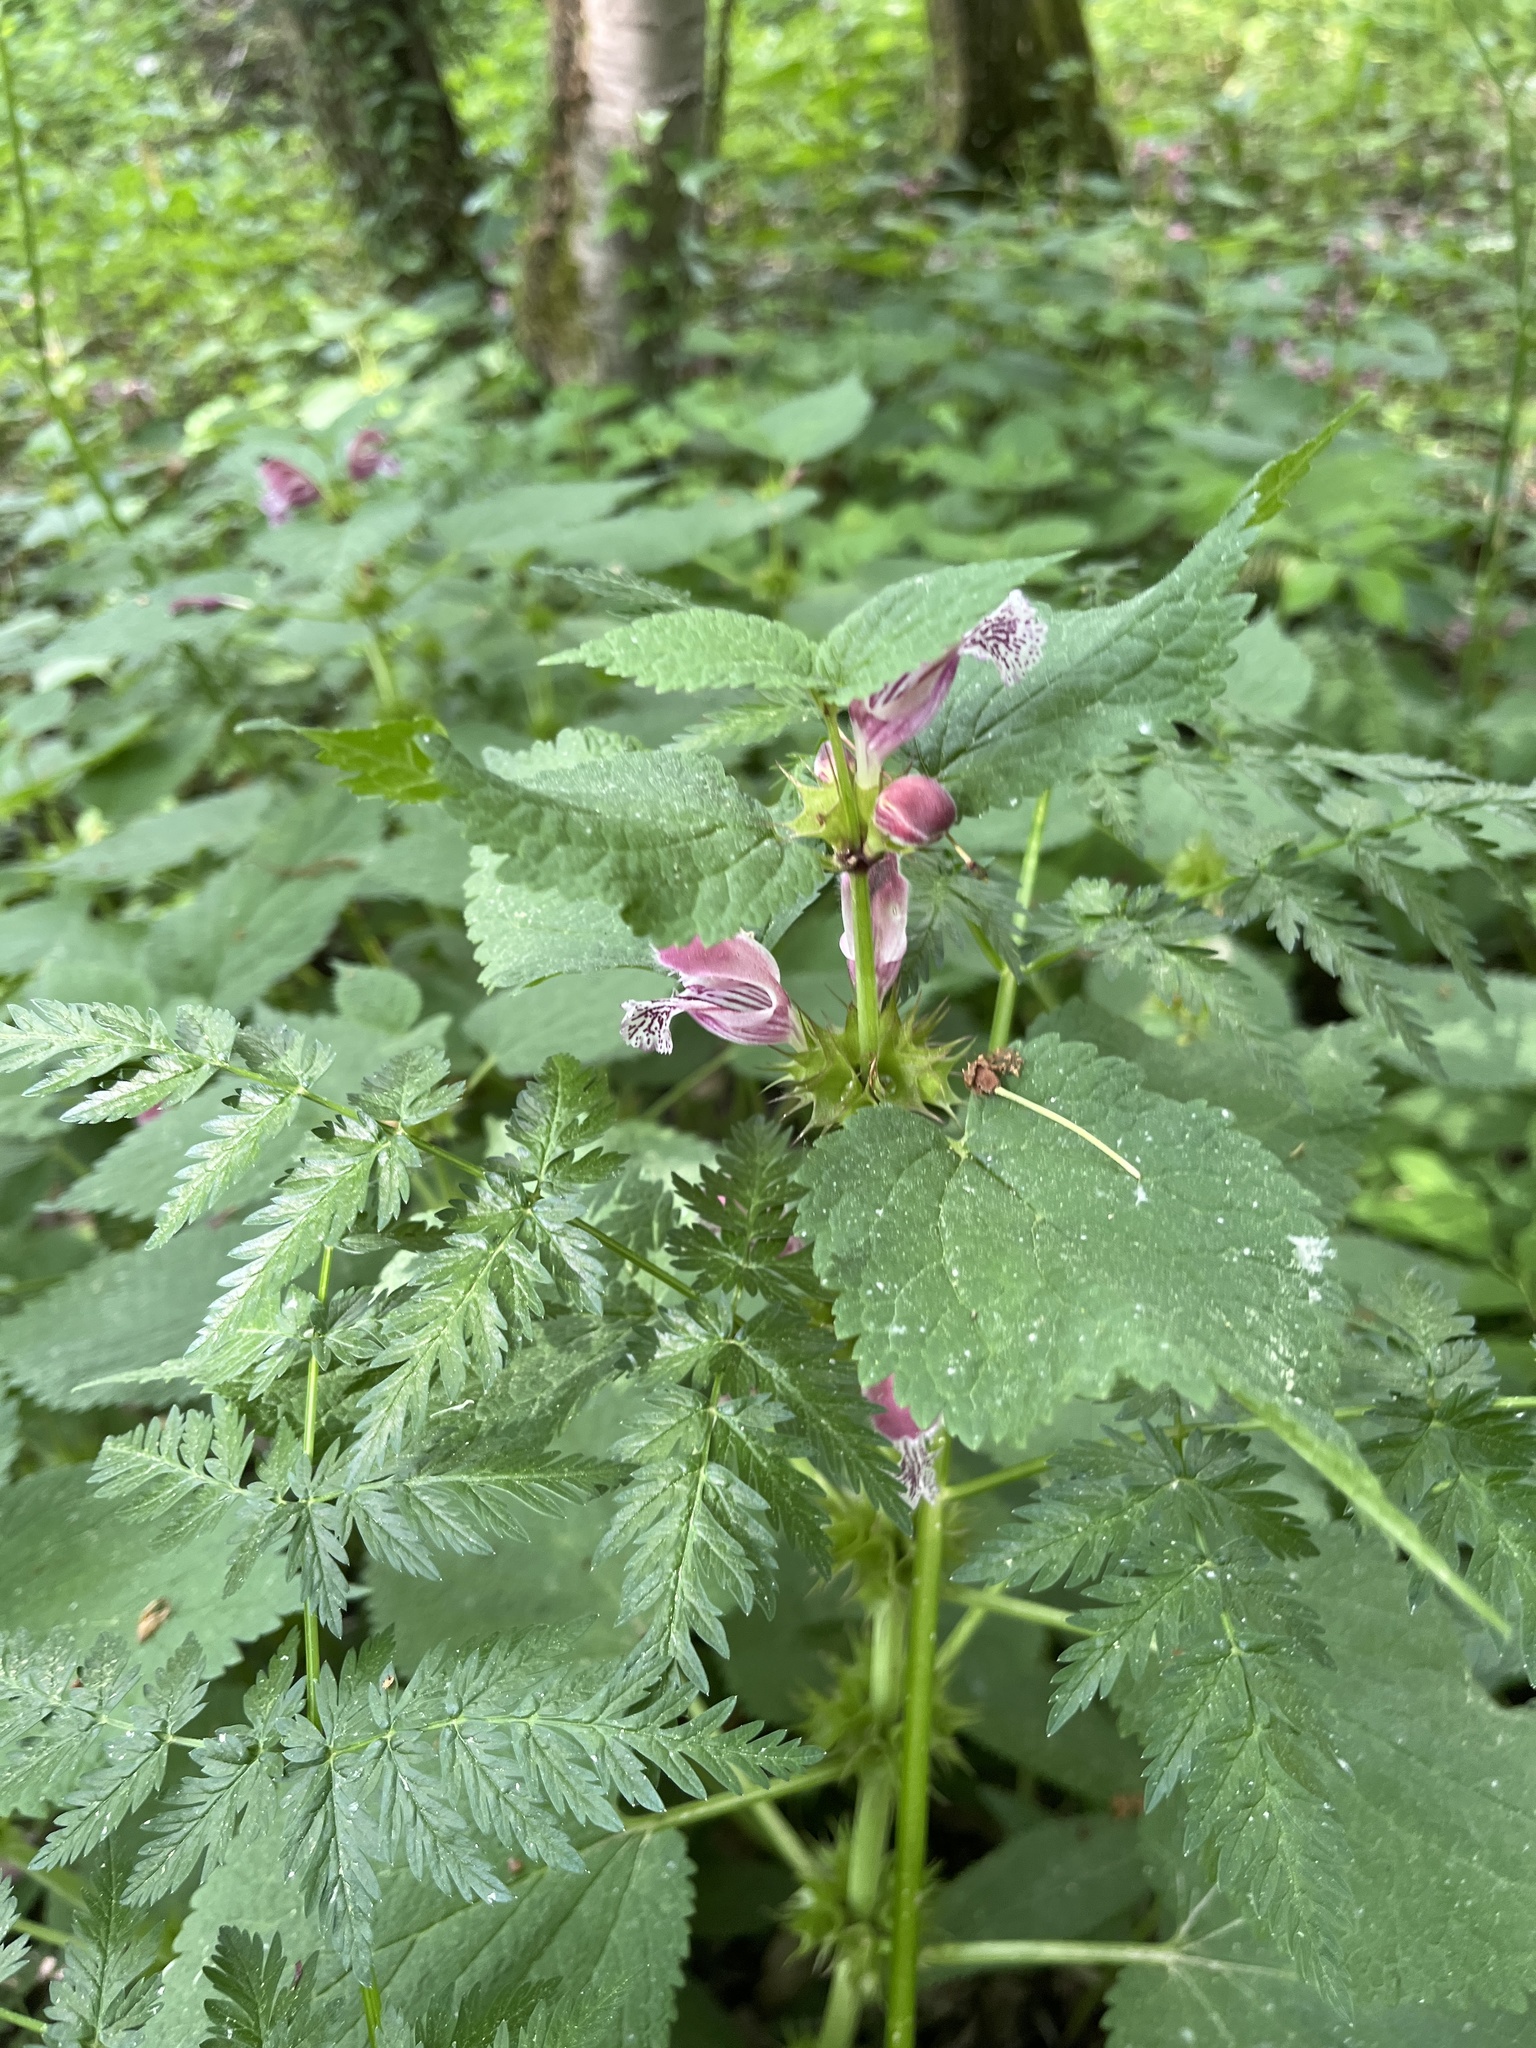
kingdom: Plantae
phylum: Tracheophyta
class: Magnoliopsida
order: Lamiales
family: Lamiaceae
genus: Lamium
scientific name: Lamium orvala
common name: Balm-leaved archangel
